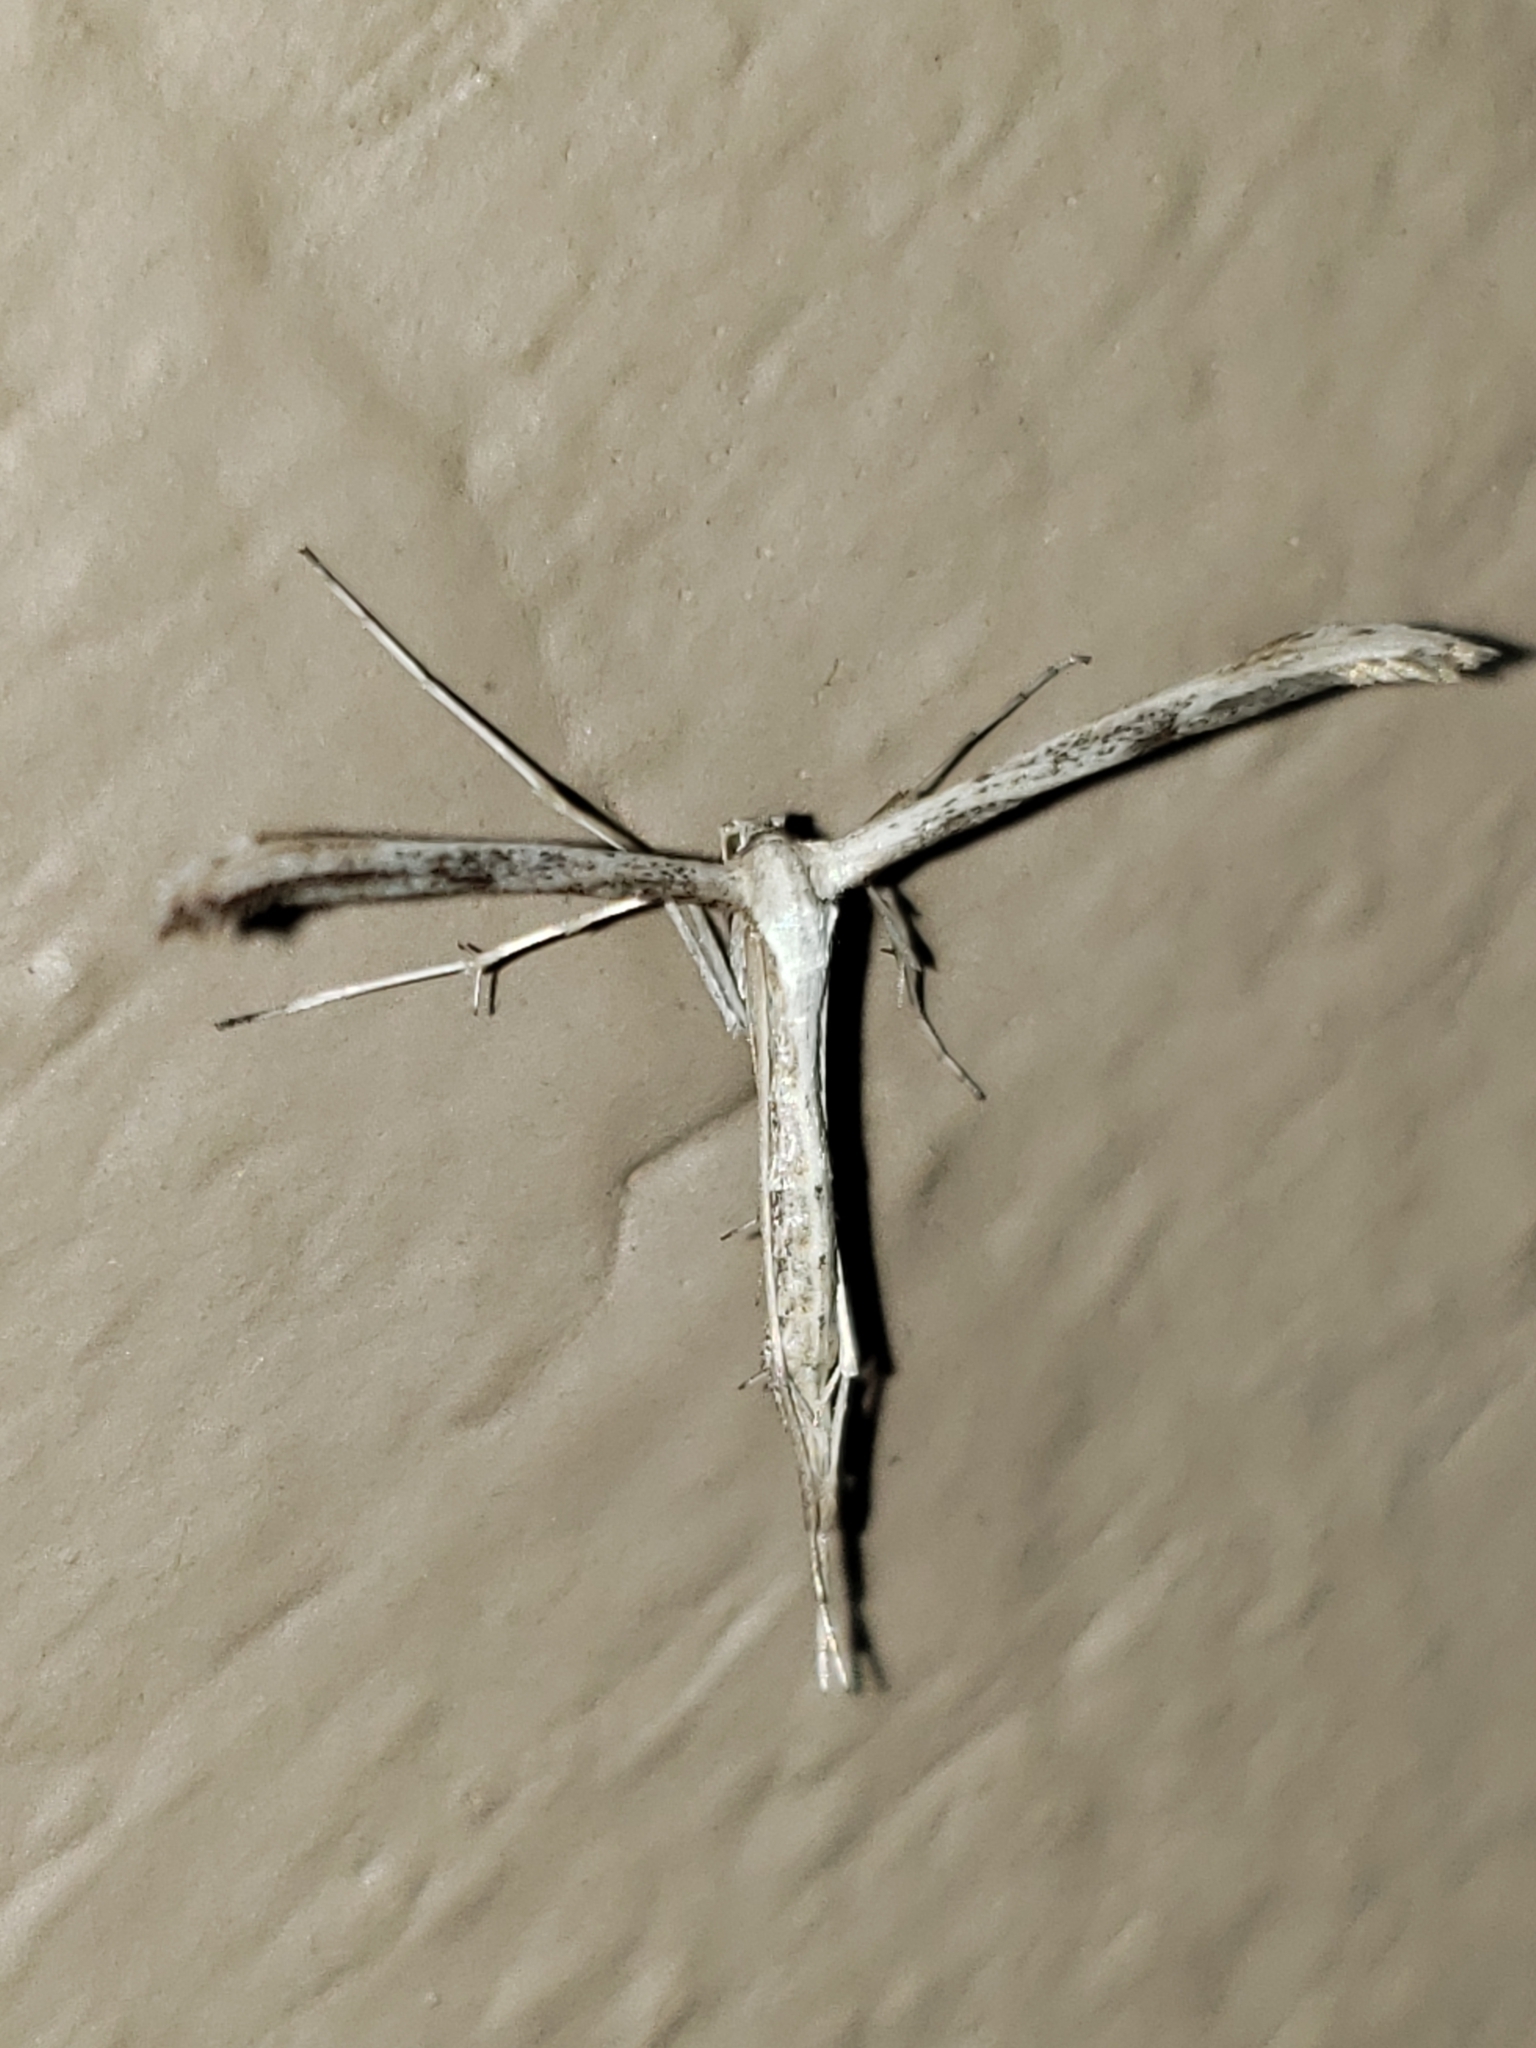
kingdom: Animalia
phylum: Arthropoda
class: Insecta
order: Lepidoptera
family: Pterophoridae
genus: Emmelina
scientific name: Emmelina monodactyla
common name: Common plume
